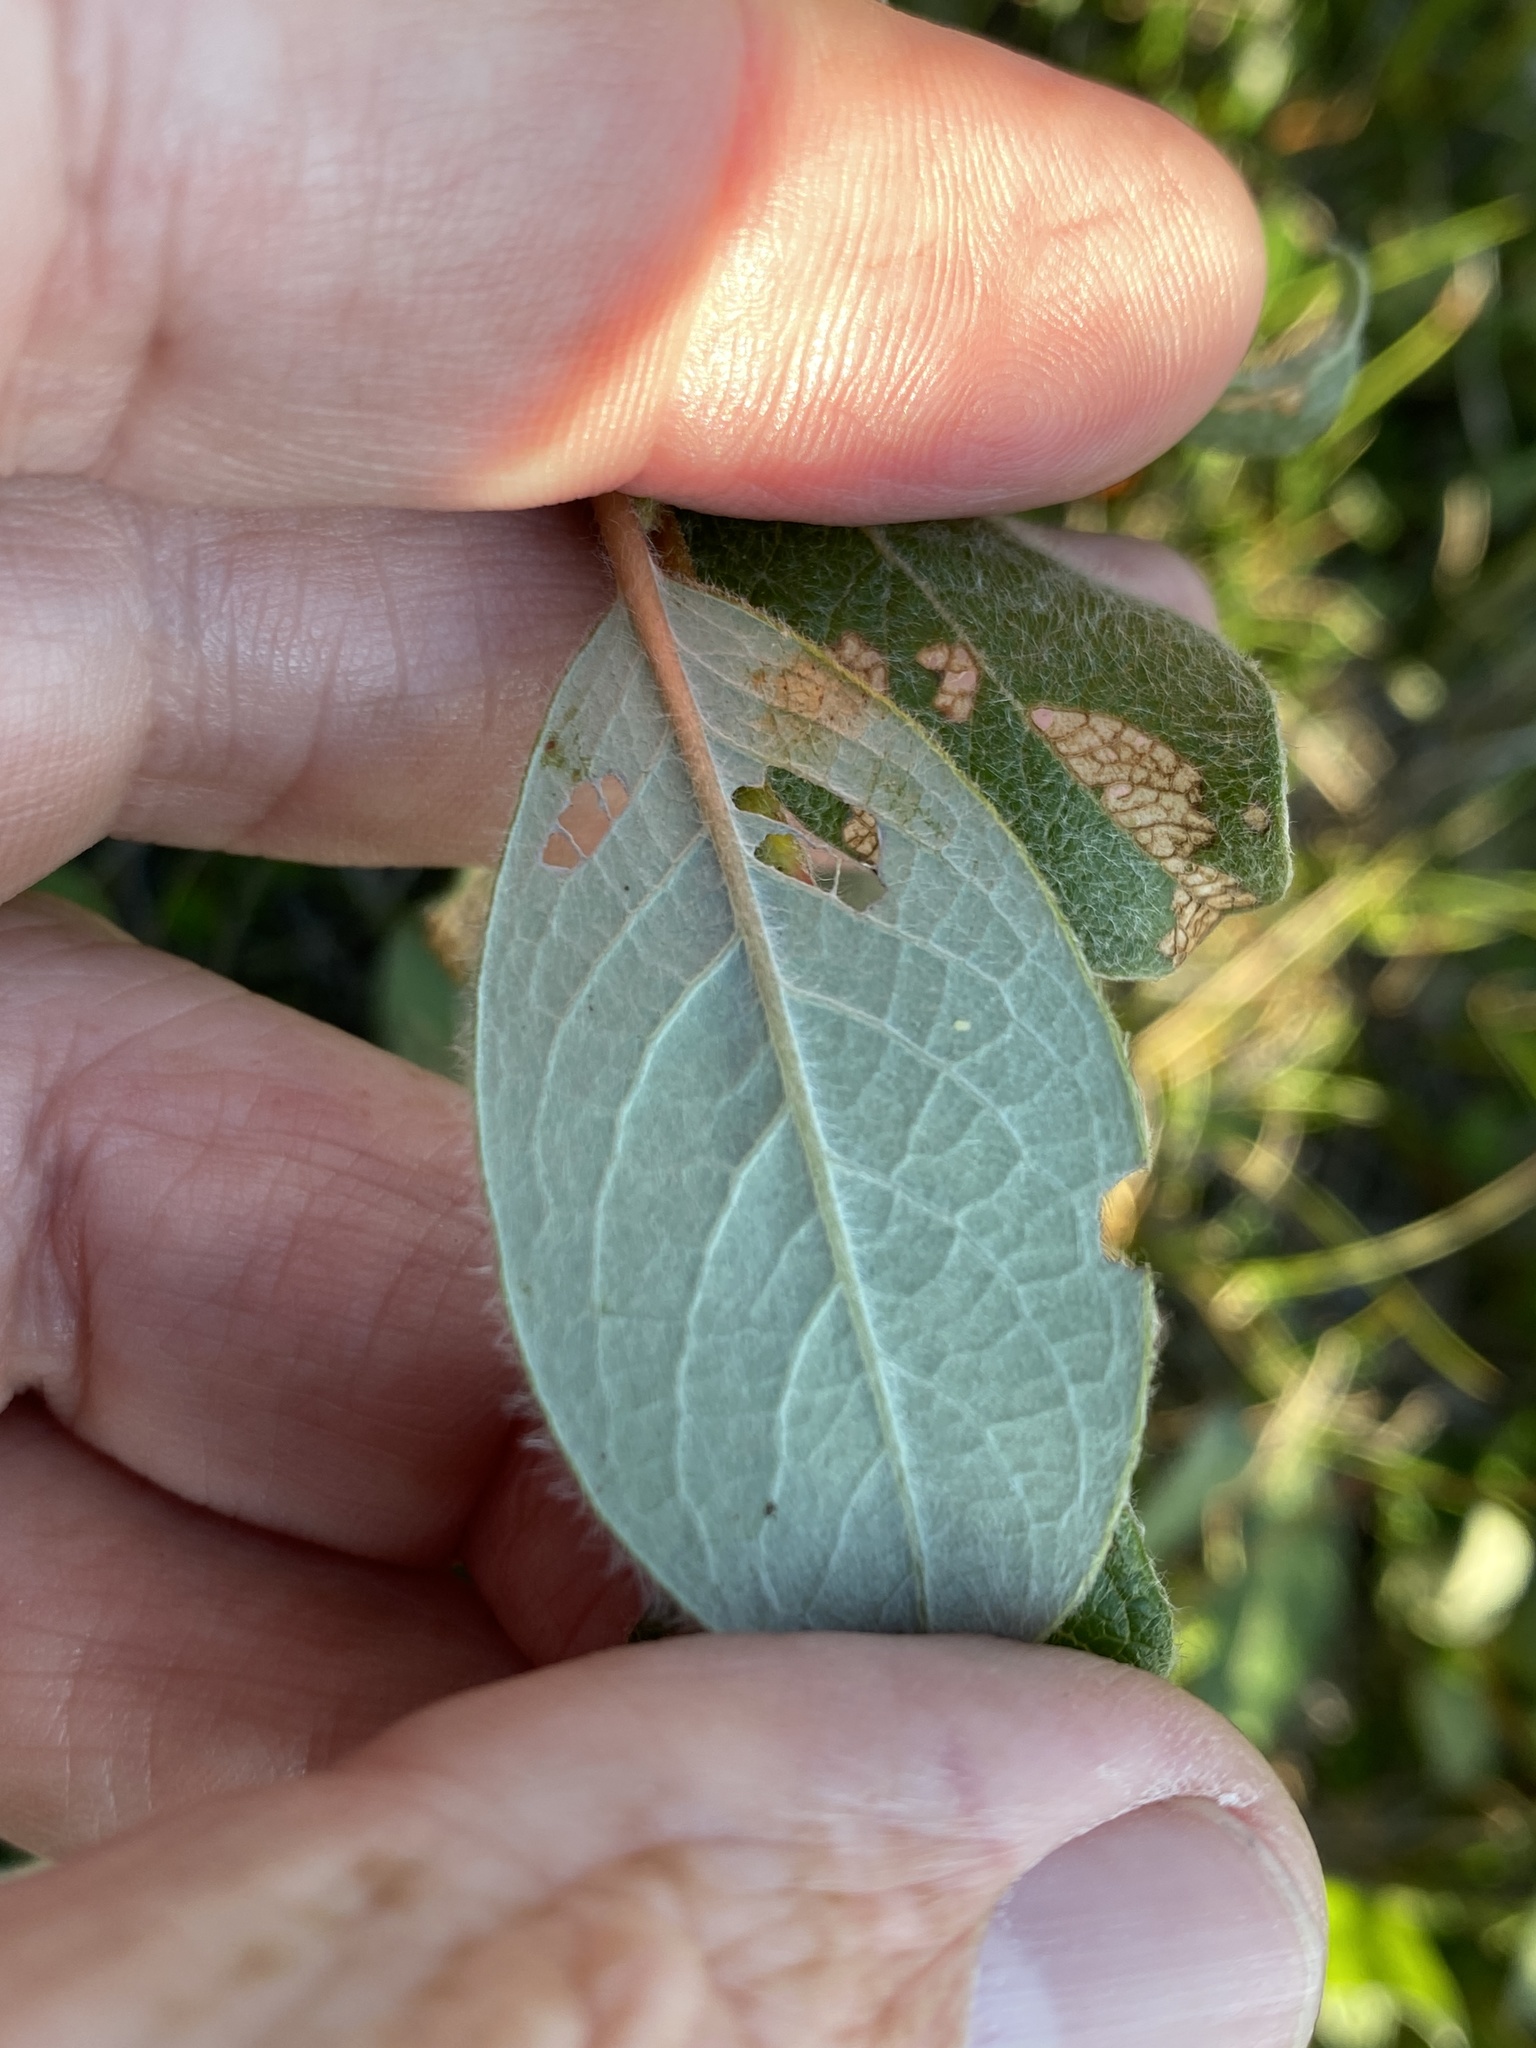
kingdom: Plantae
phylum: Tracheophyta
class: Magnoliopsida
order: Malpighiales
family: Salicaceae
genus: Salix
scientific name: Salix arctica
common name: Arctic willow
